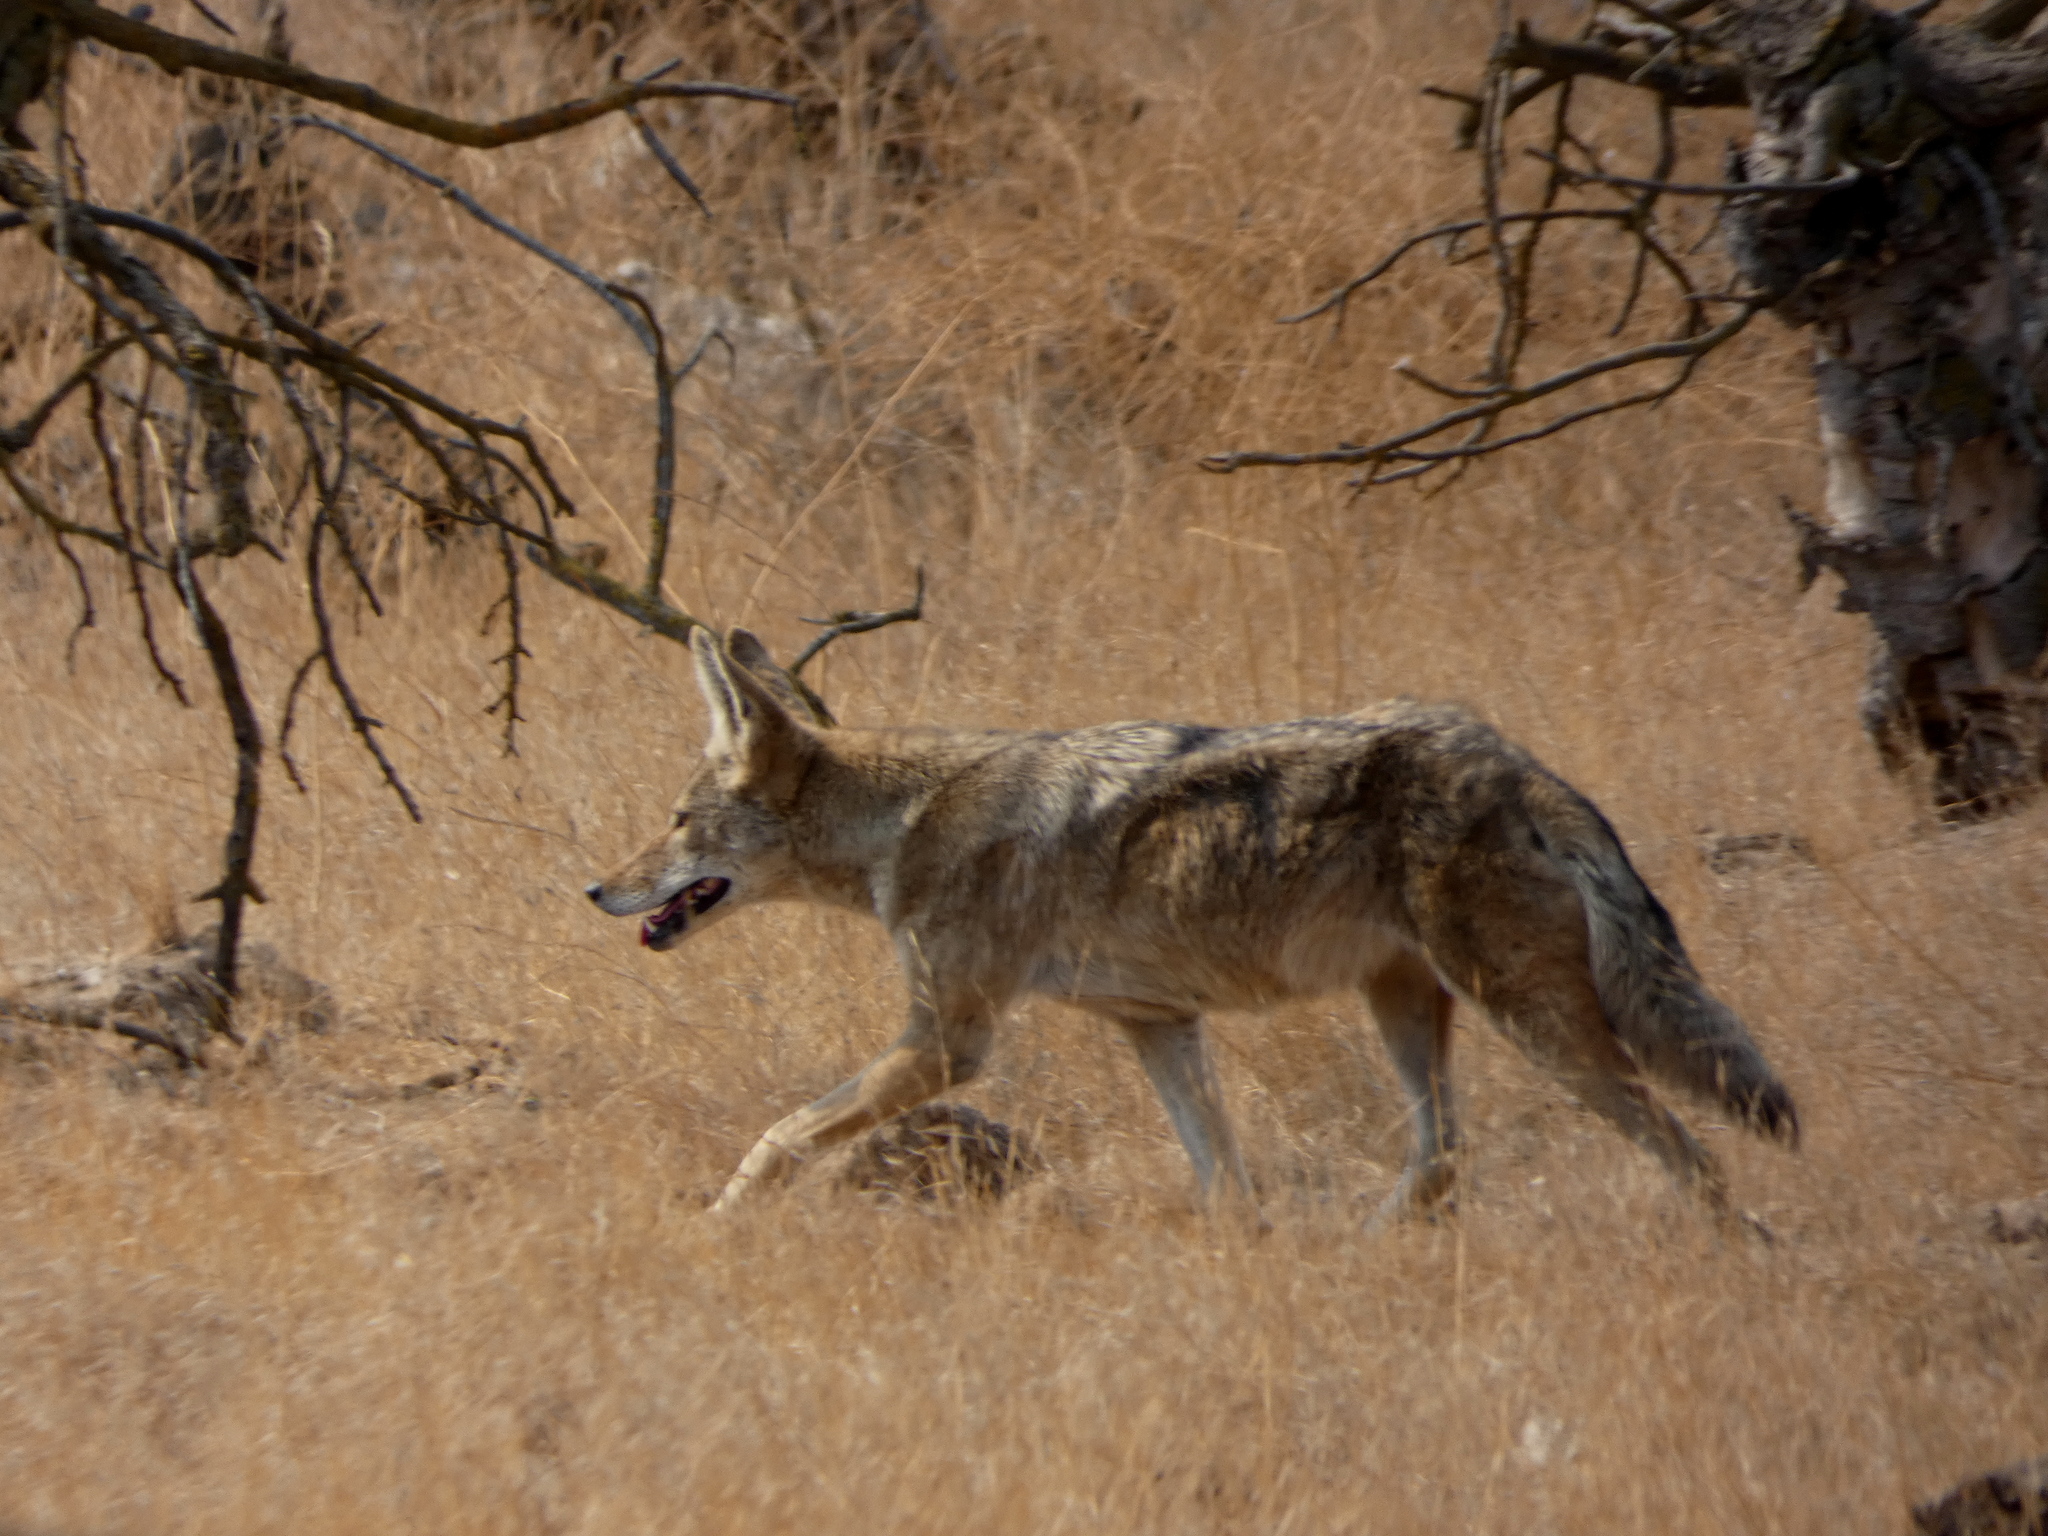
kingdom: Animalia
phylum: Chordata
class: Mammalia
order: Carnivora
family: Canidae
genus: Canis
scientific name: Canis latrans
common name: Coyote
